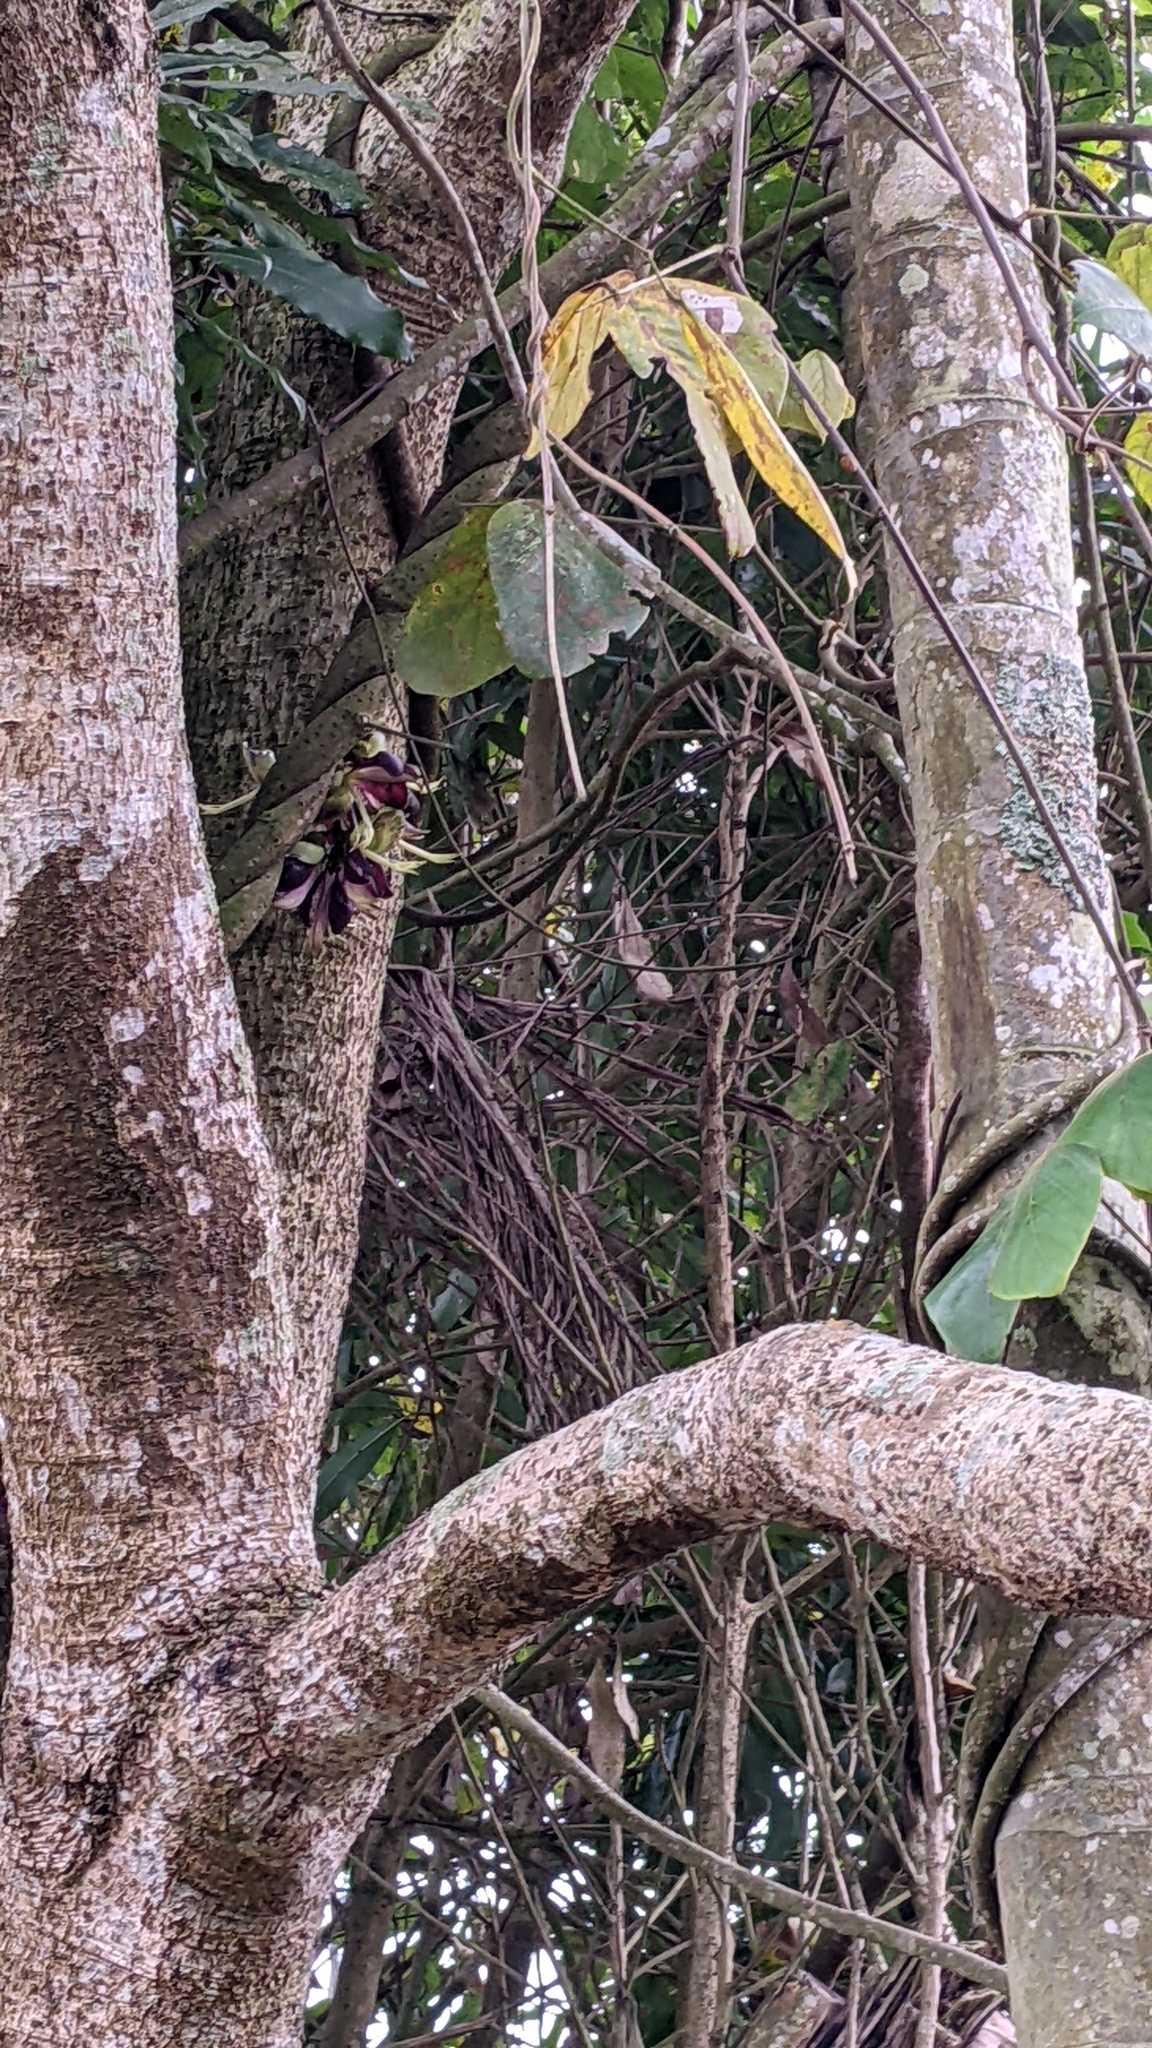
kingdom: Plantae
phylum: Tracheophyta
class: Magnoliopsida
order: Fabales
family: Fabaceae
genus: Mucuna
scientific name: Mucuna macrocarpa
